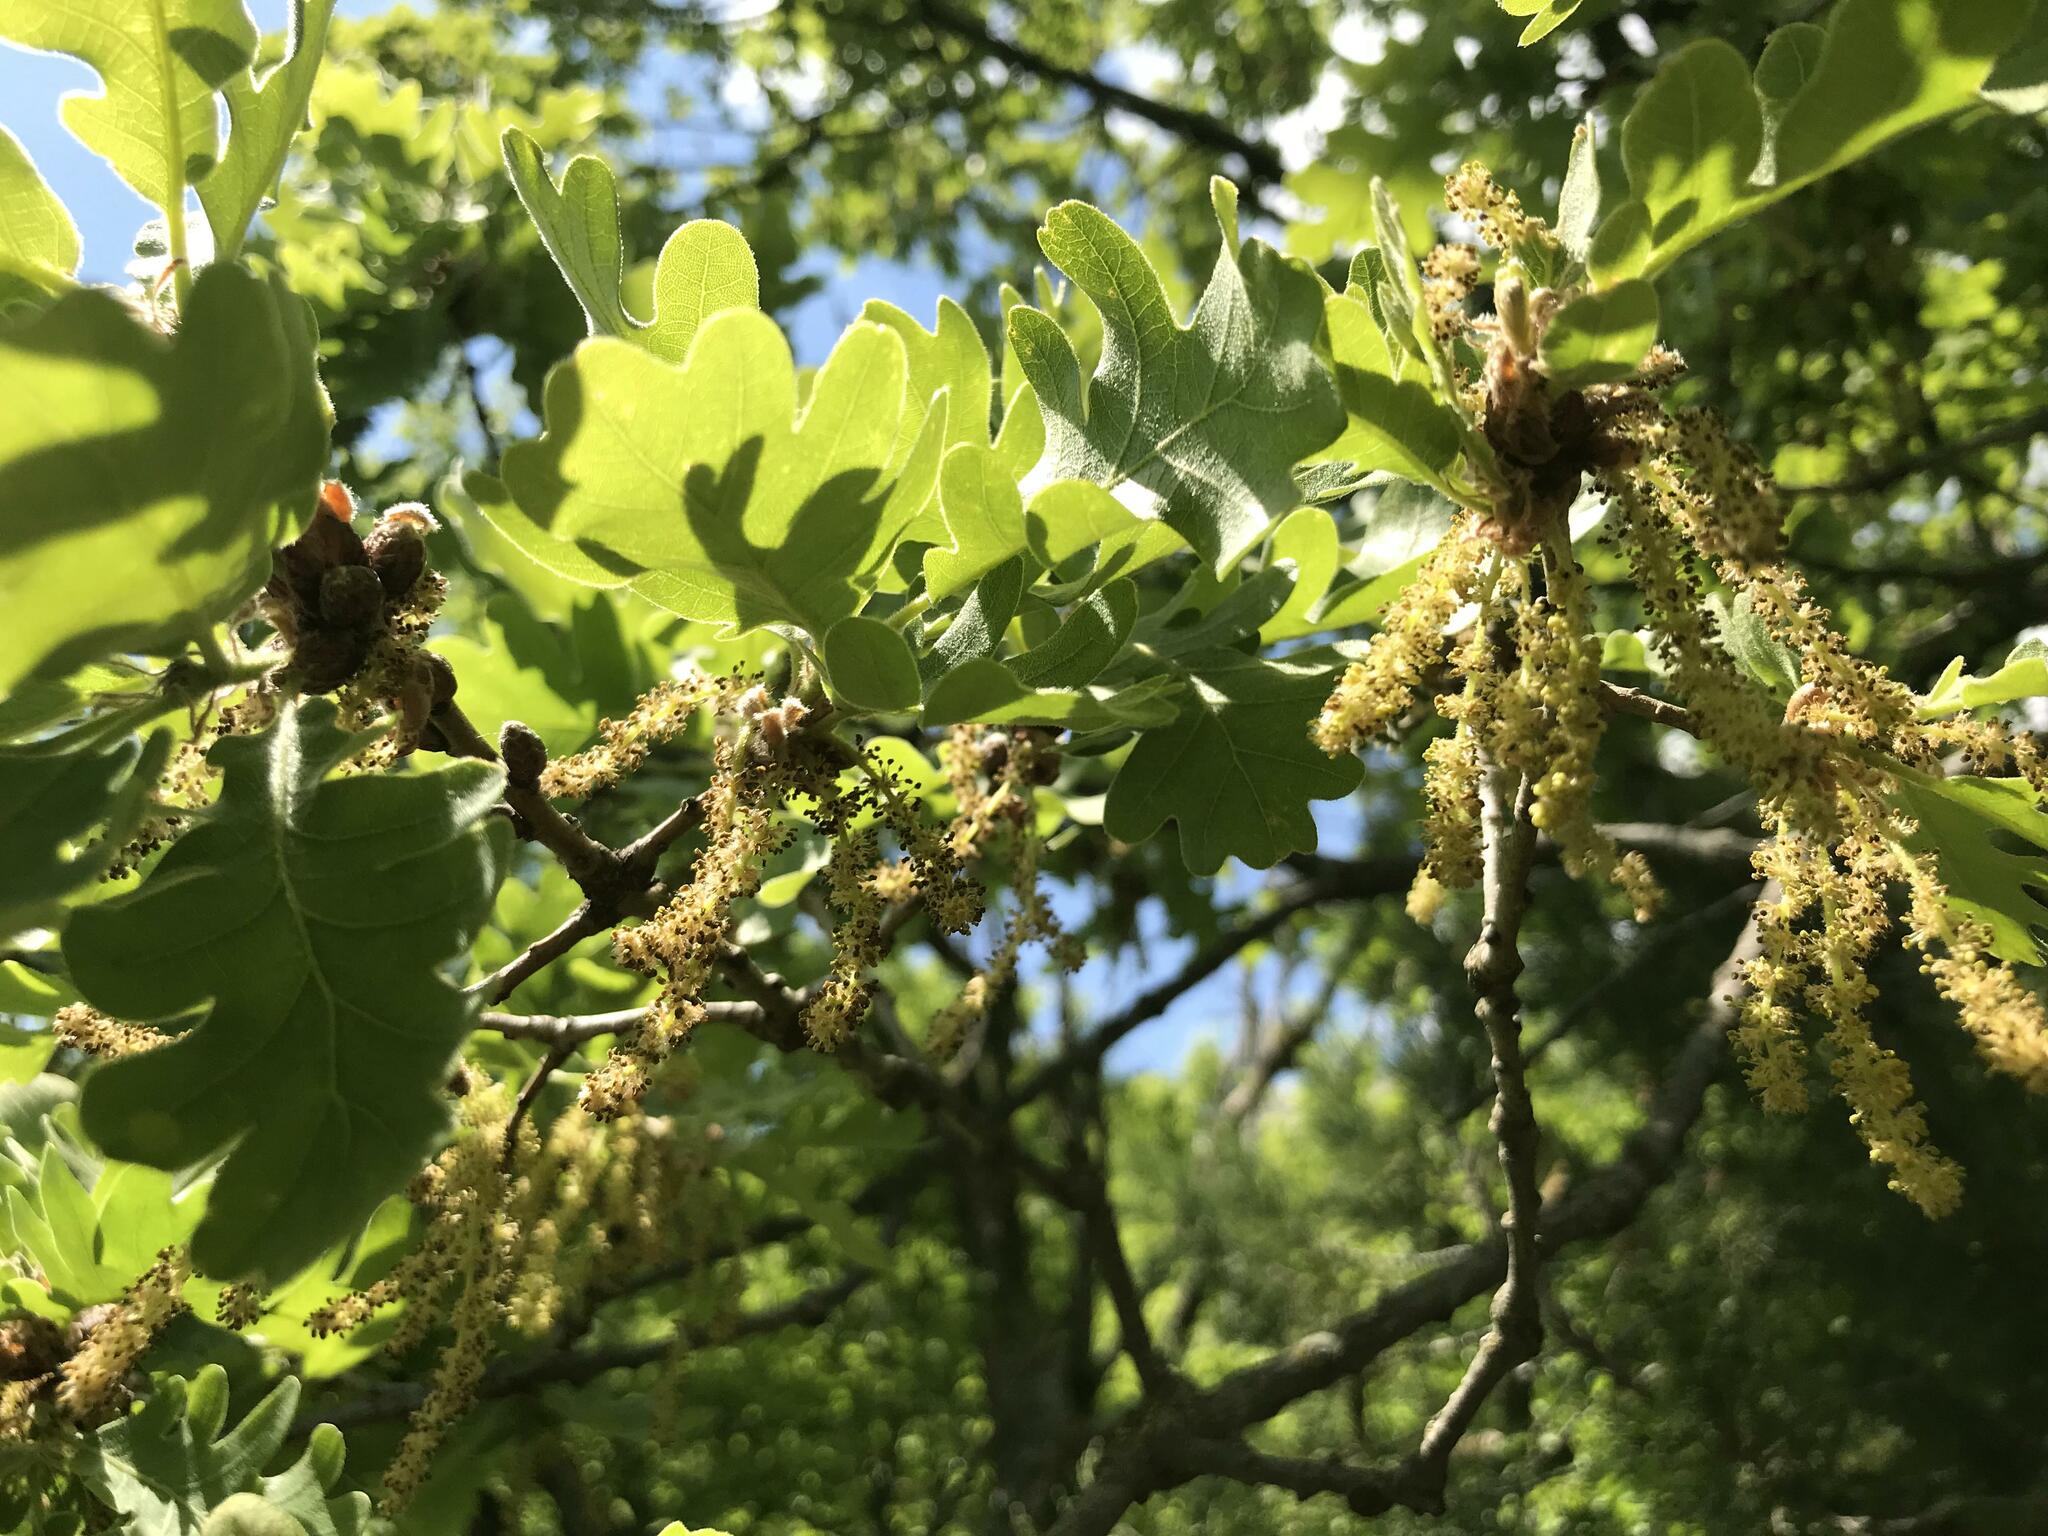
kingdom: Plantae
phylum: Tracheophyta
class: Magnoliopsida
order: Fagales
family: Fagaceae
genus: Quercus
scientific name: Quercus pubescens
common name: Downy oak
